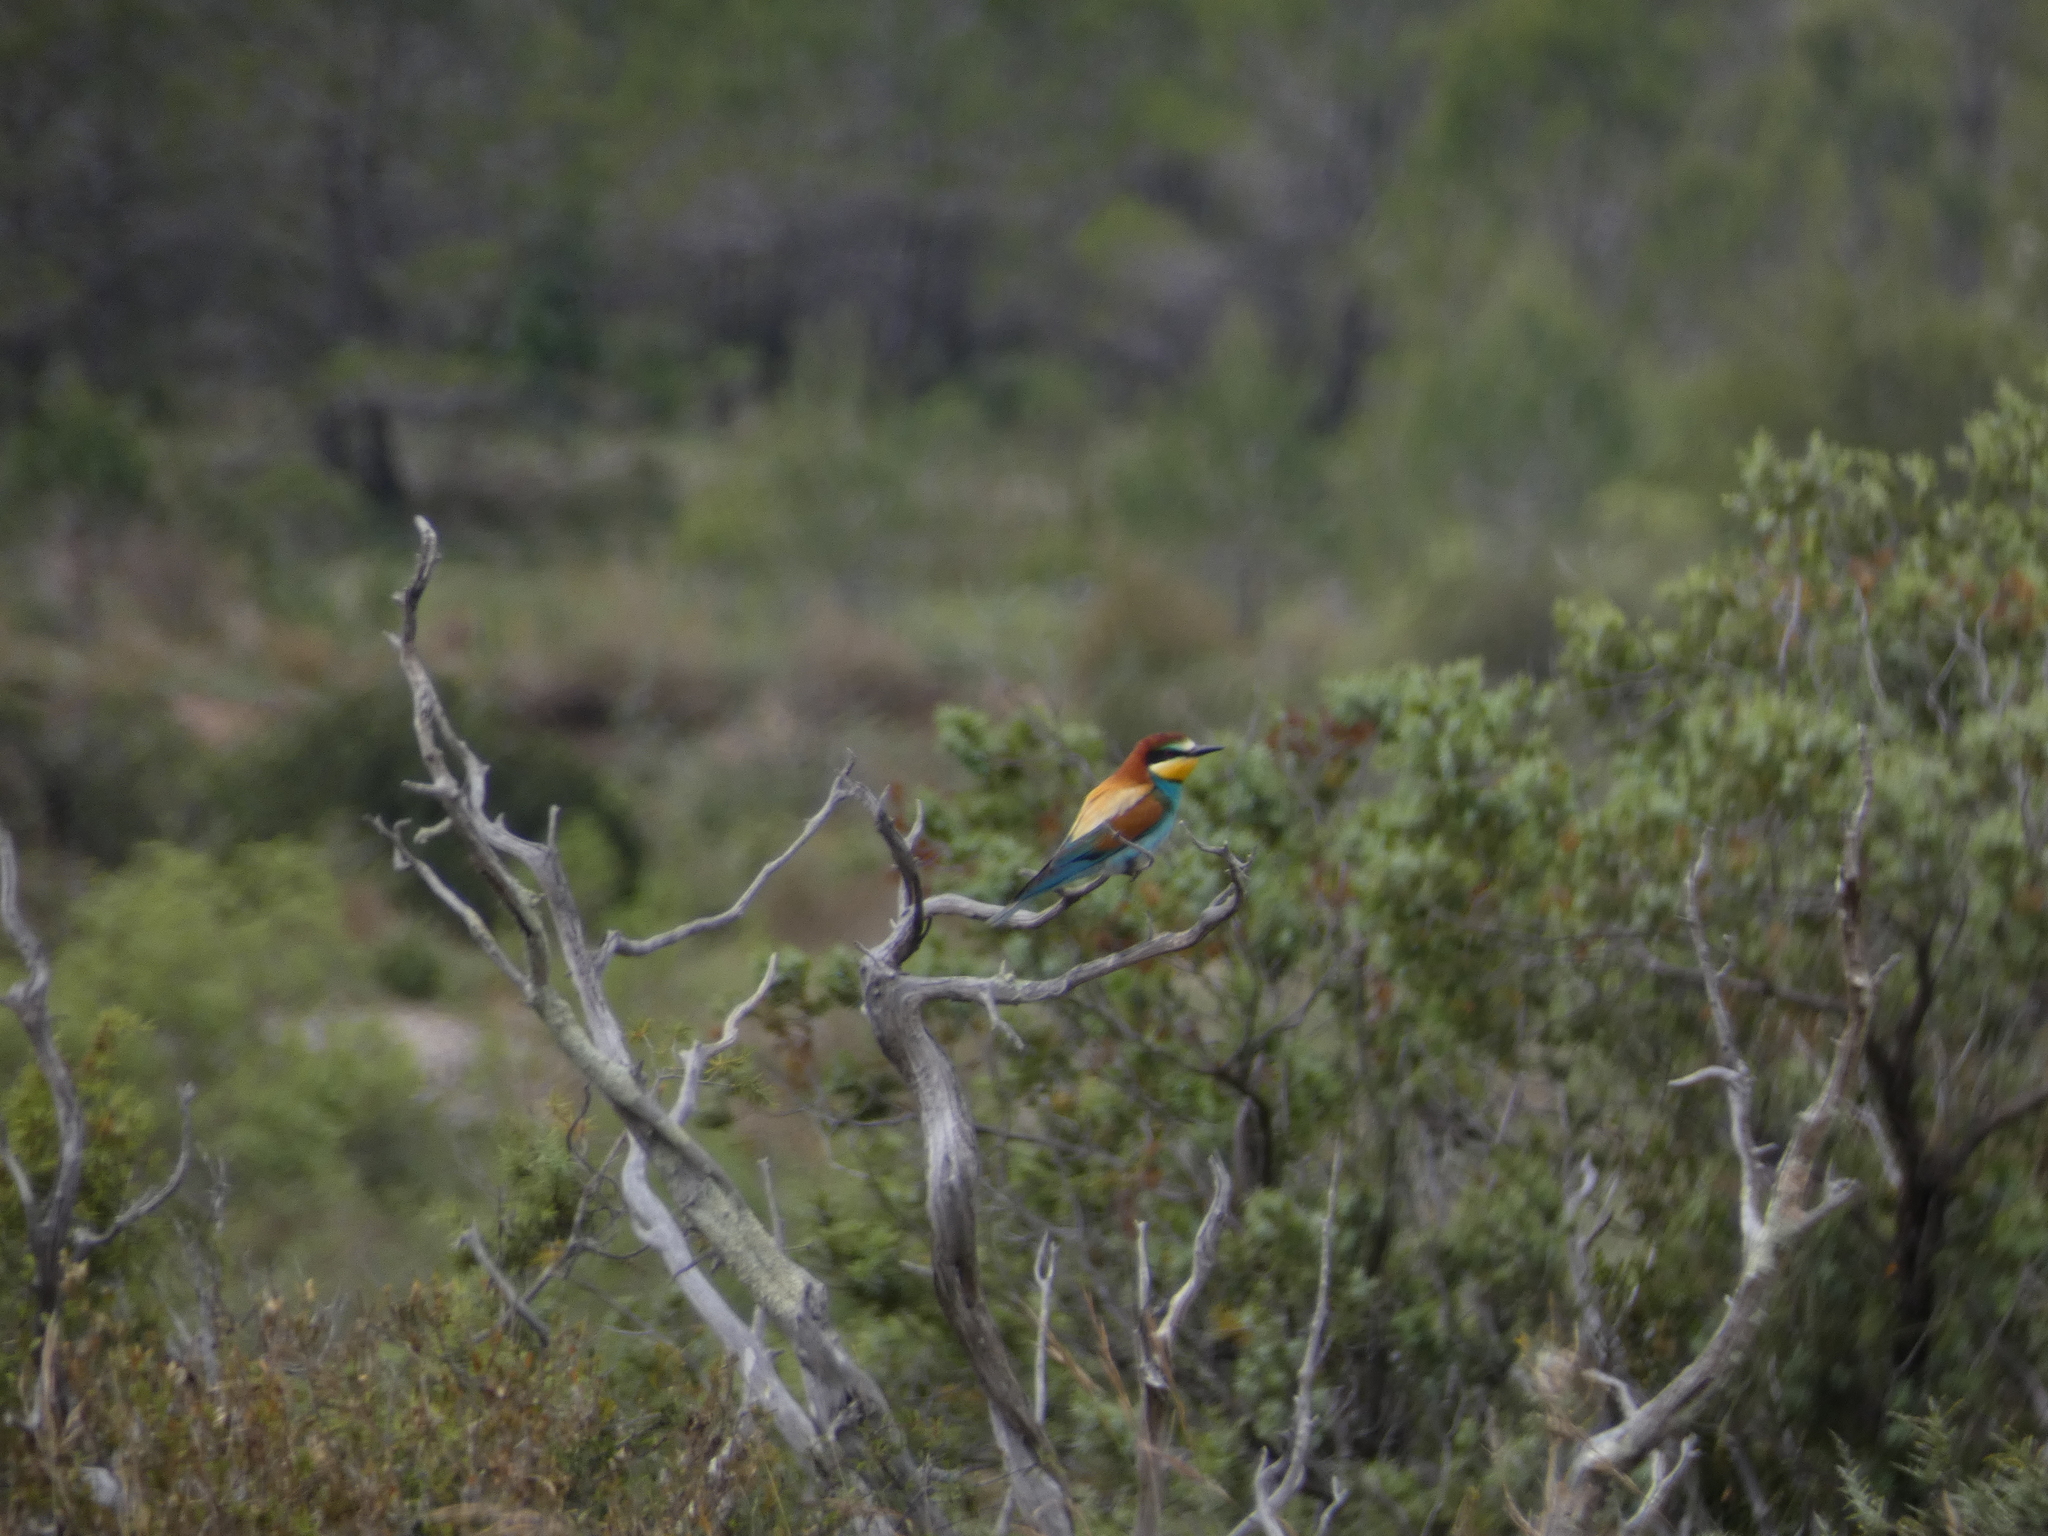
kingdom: Animalia
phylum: Chordata
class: Aves
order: Coraciiformes
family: Meropidae
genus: Merops
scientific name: Merops apiaster
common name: European bee-eater
